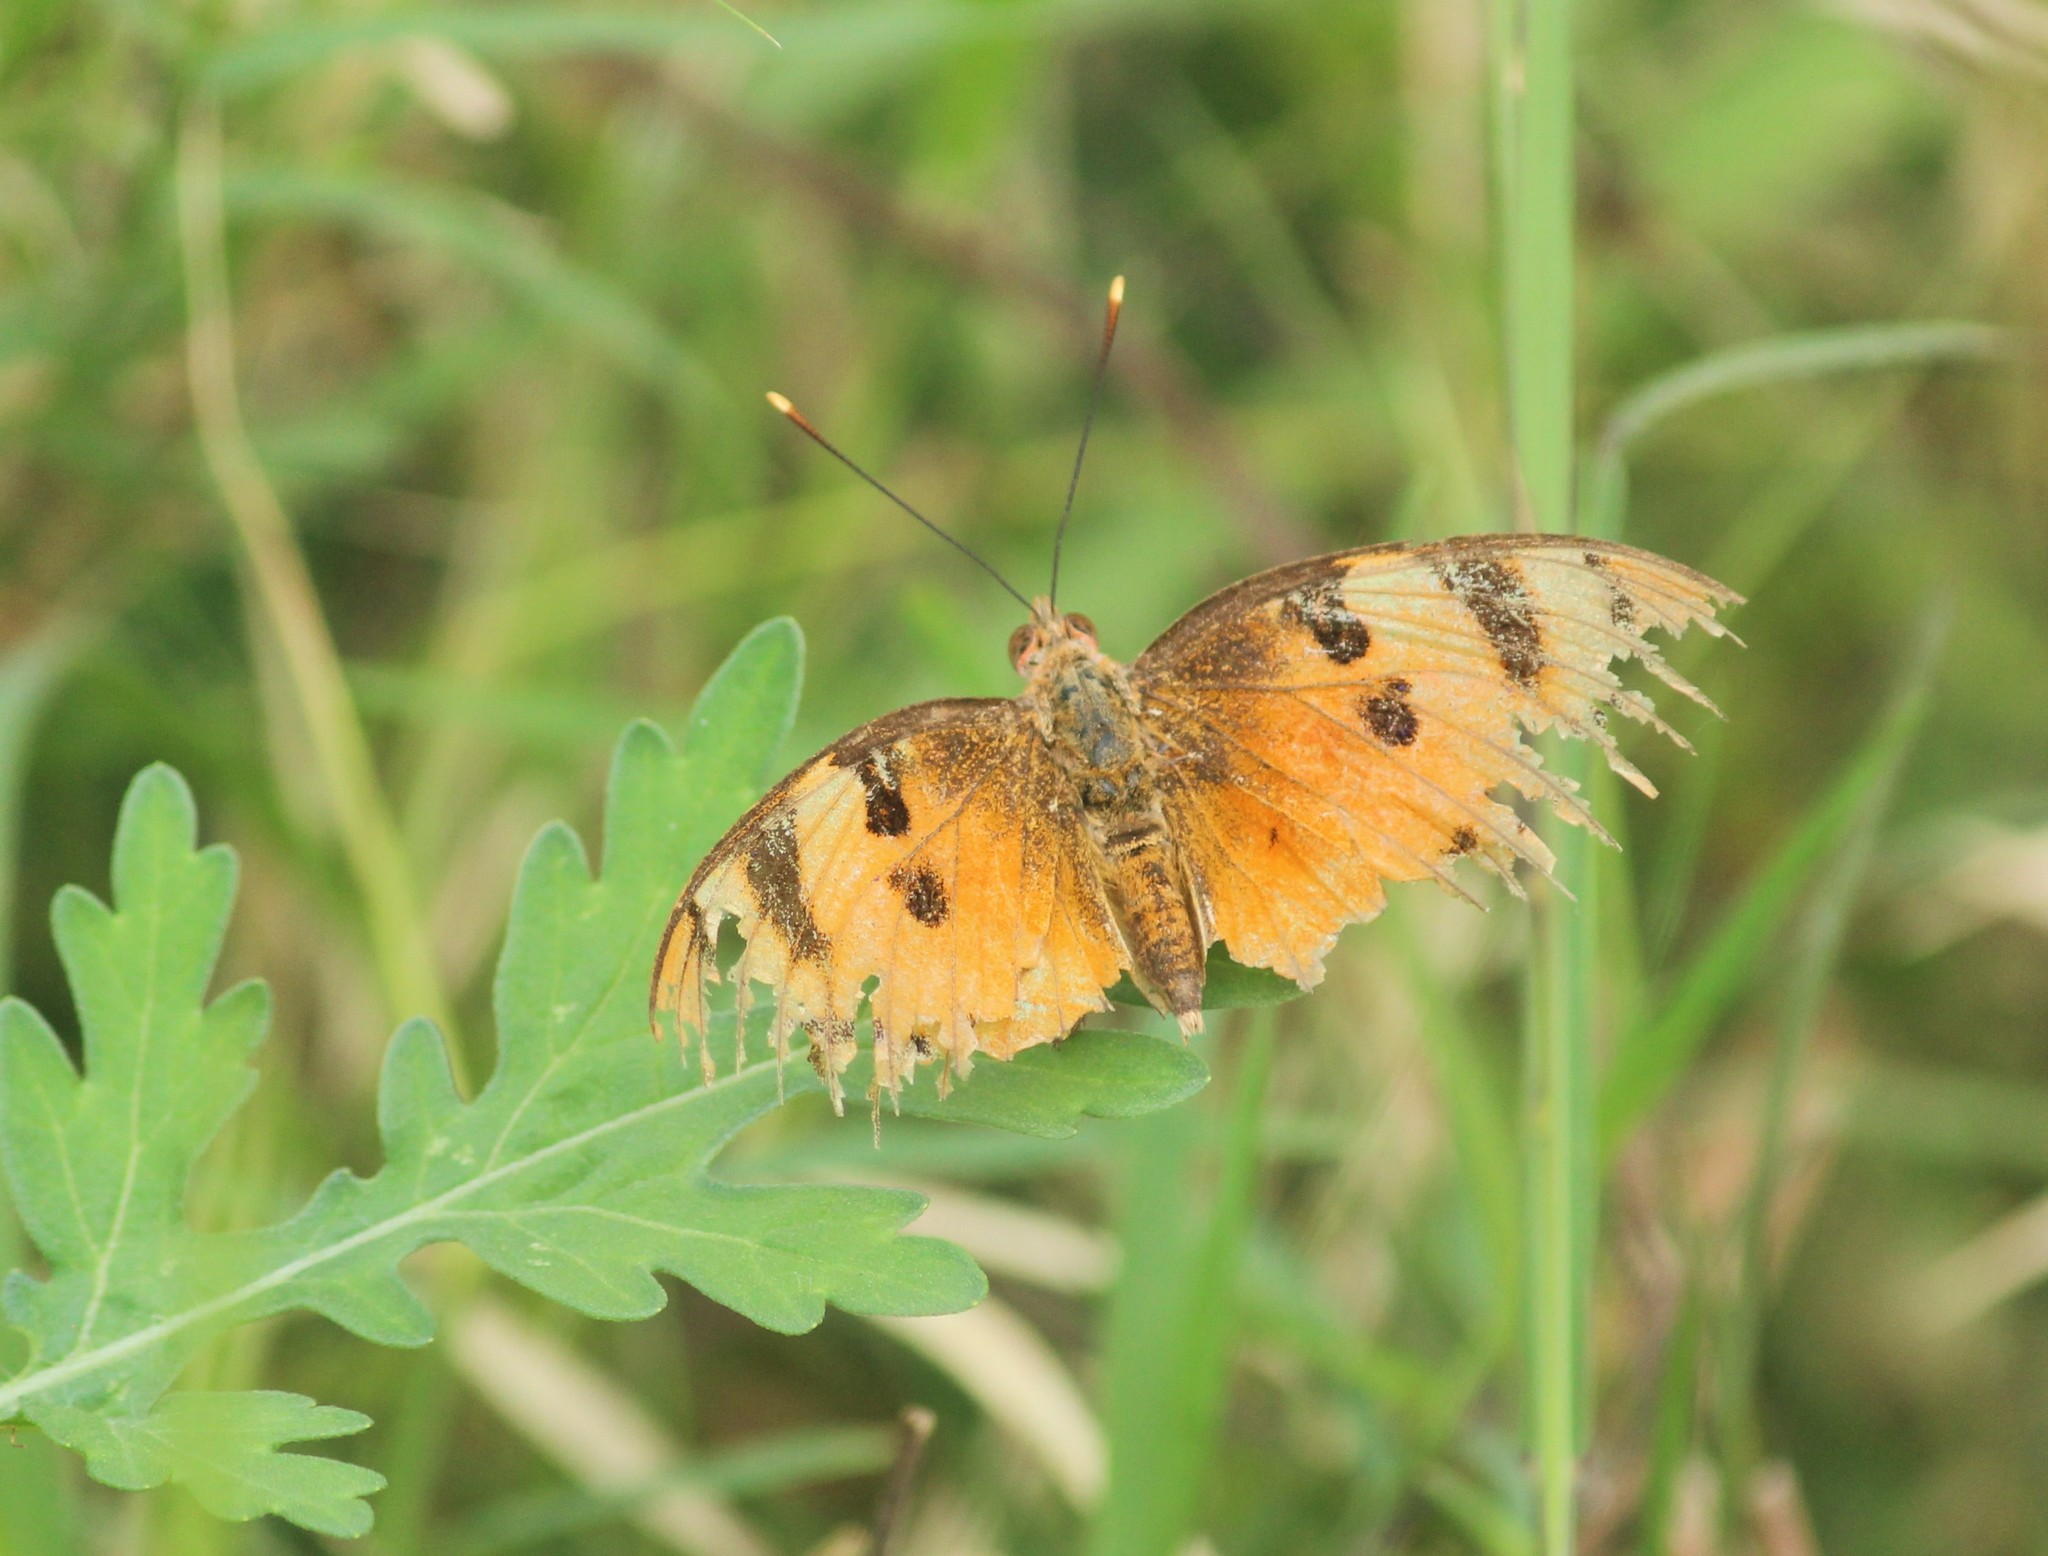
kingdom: Animalia
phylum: Arthropoda
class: Insecta
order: Lepidoptera
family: Nymphalidae
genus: Euthalia
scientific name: Euthalia nais
